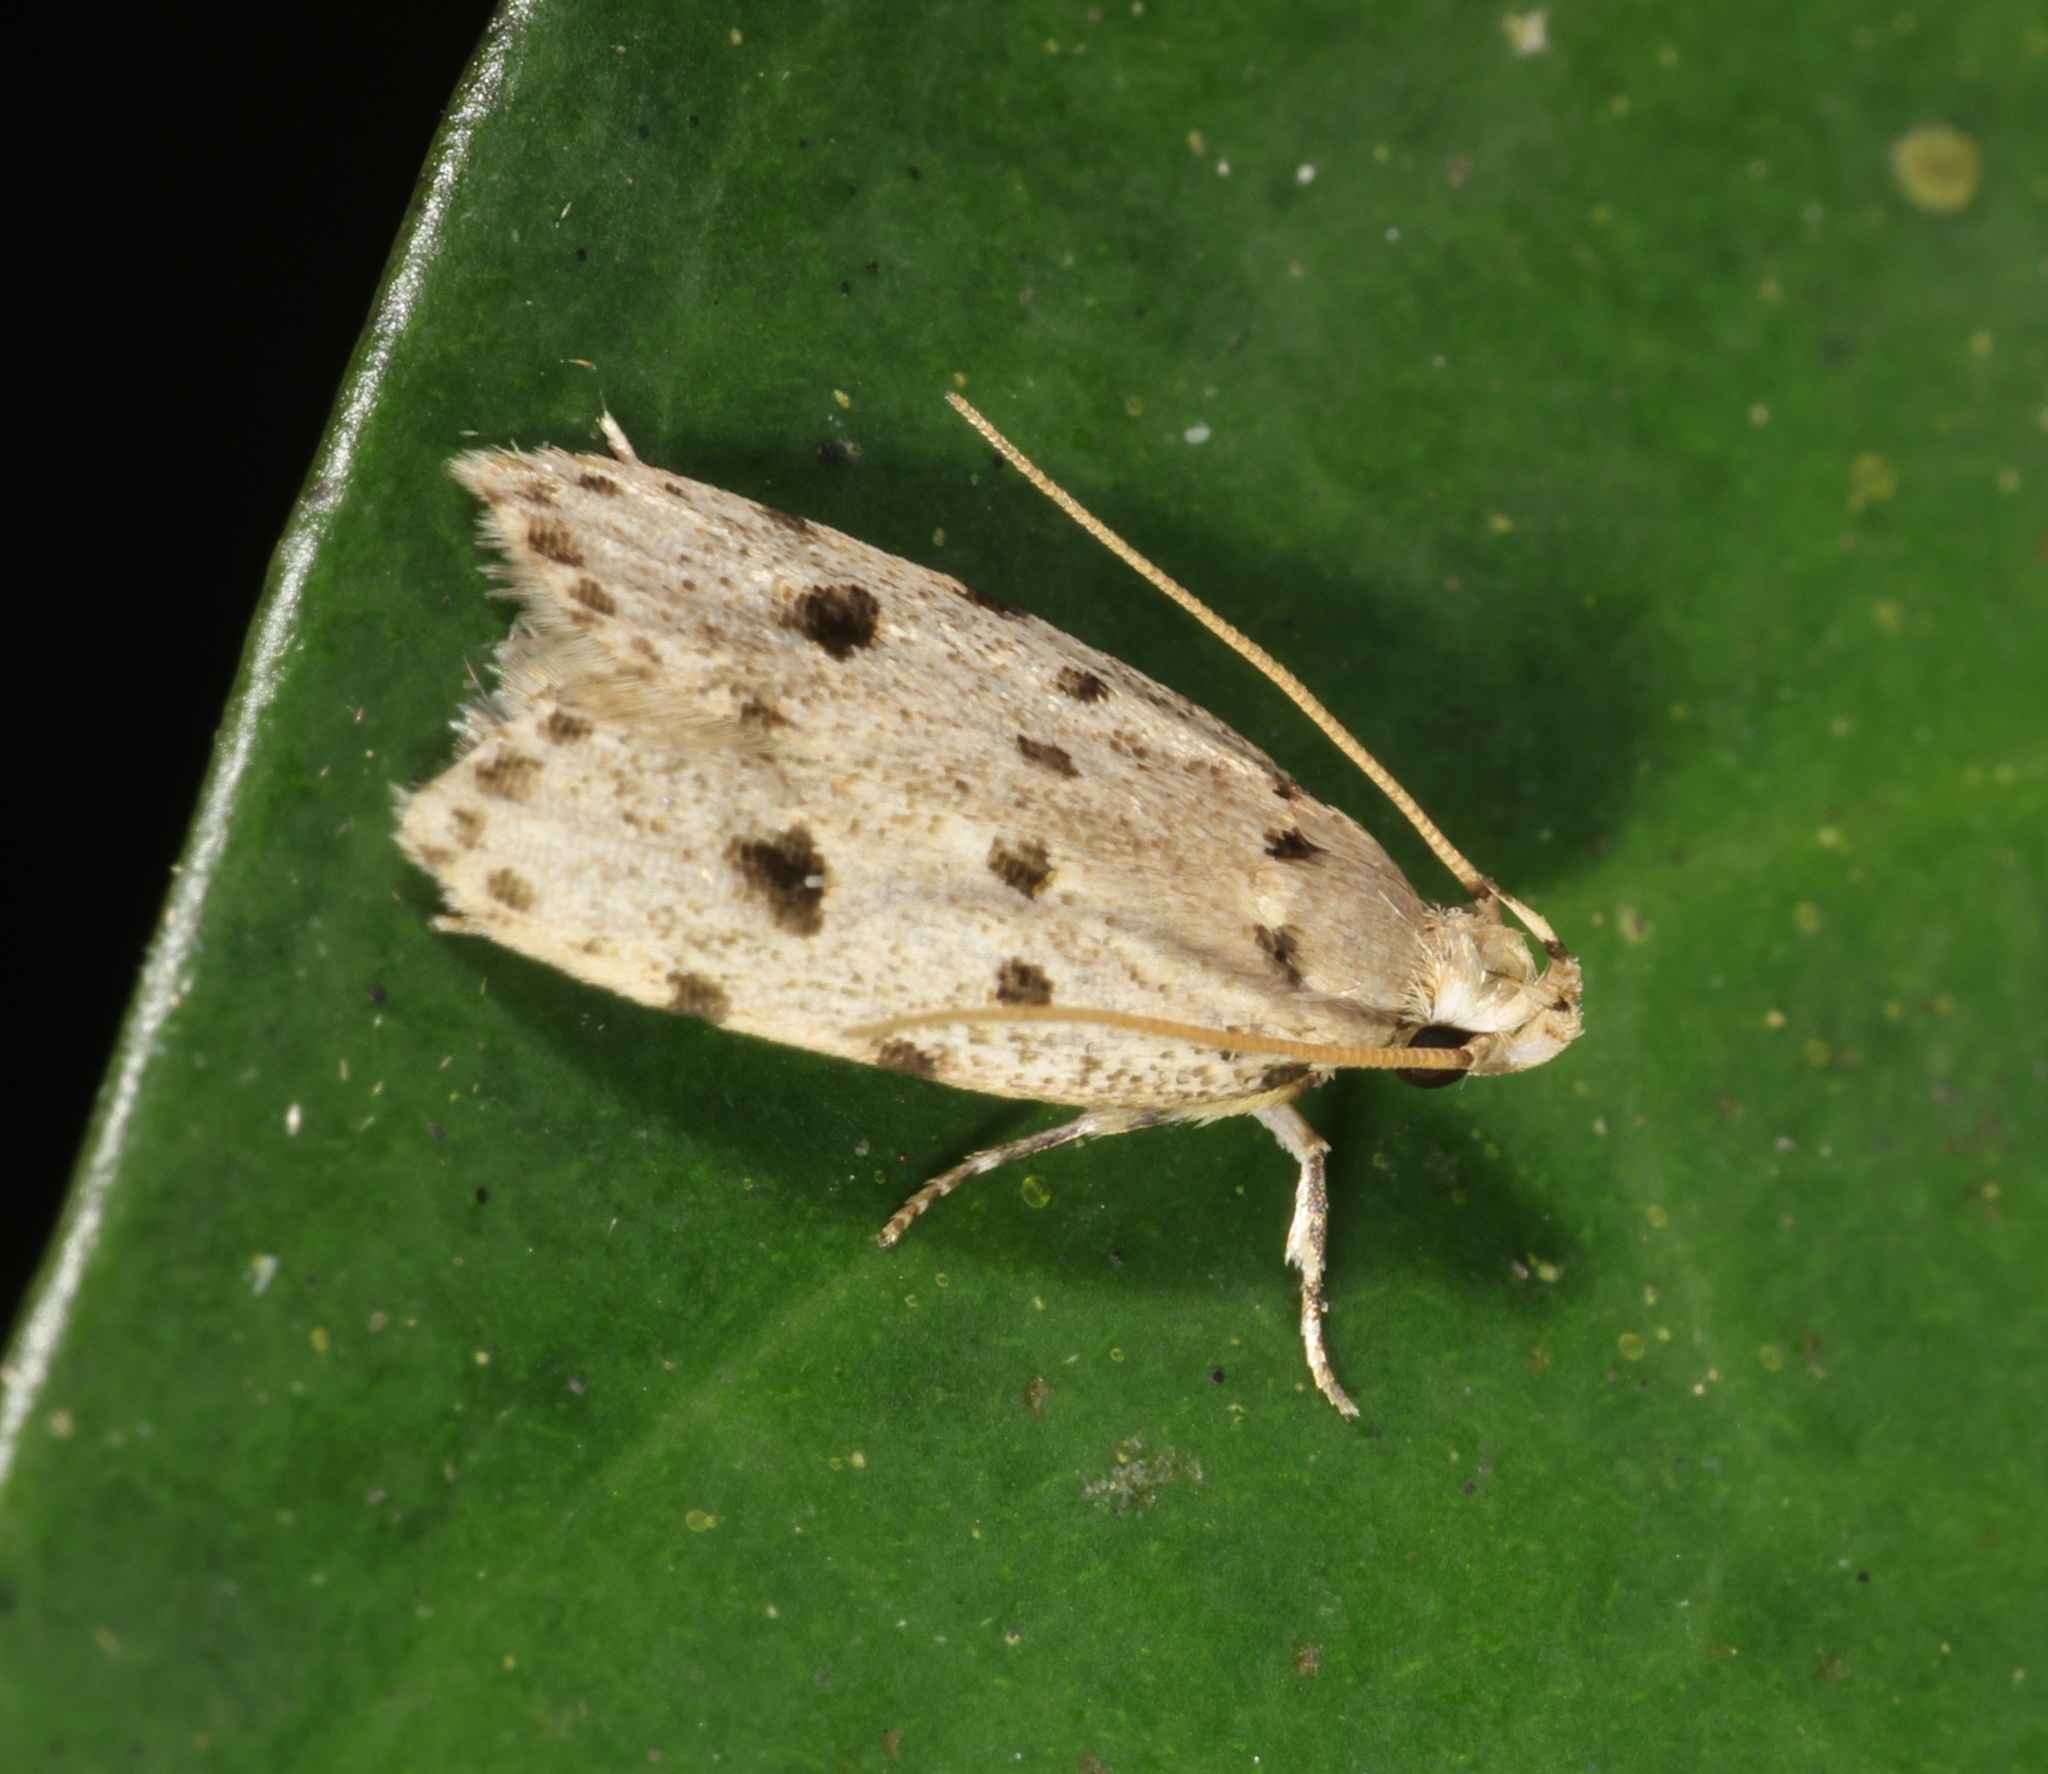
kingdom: Animalia
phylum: Arthropoda
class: Insecta
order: Lepidoptera
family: Autostichidae
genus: Autosticha
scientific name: Autosticha calceata
